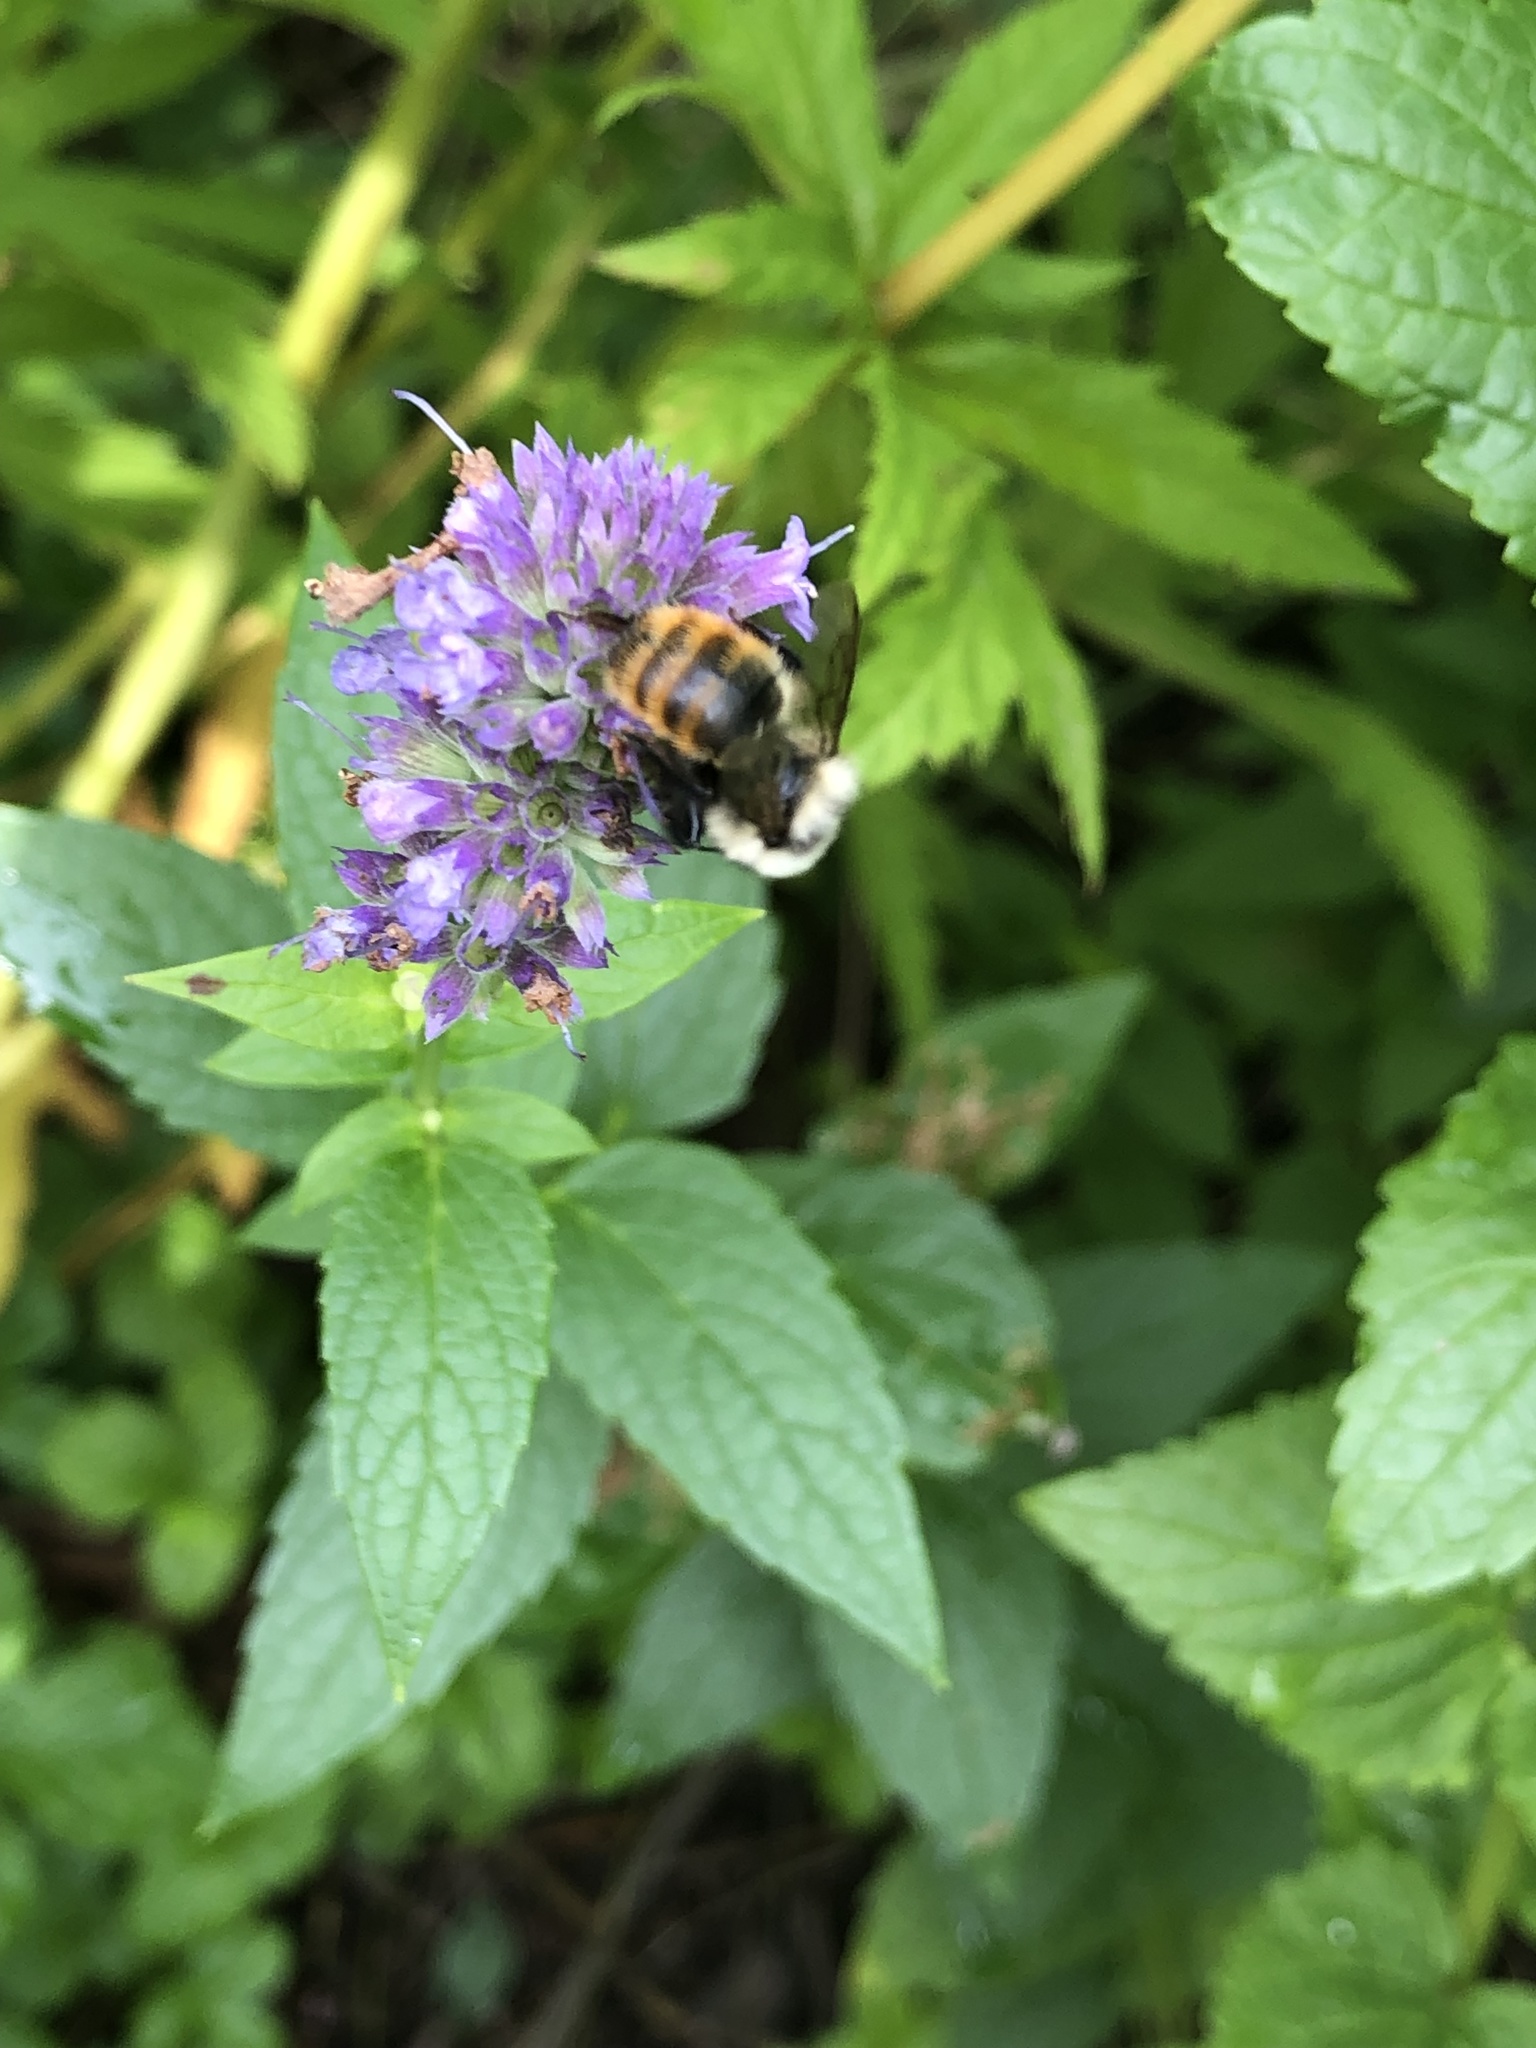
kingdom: Animalia
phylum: Arthropoda
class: Insecta
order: Hymenoptera
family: Apidae
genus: Bombus
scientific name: Bombus rufocinctus
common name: Red-belted bumble bee
